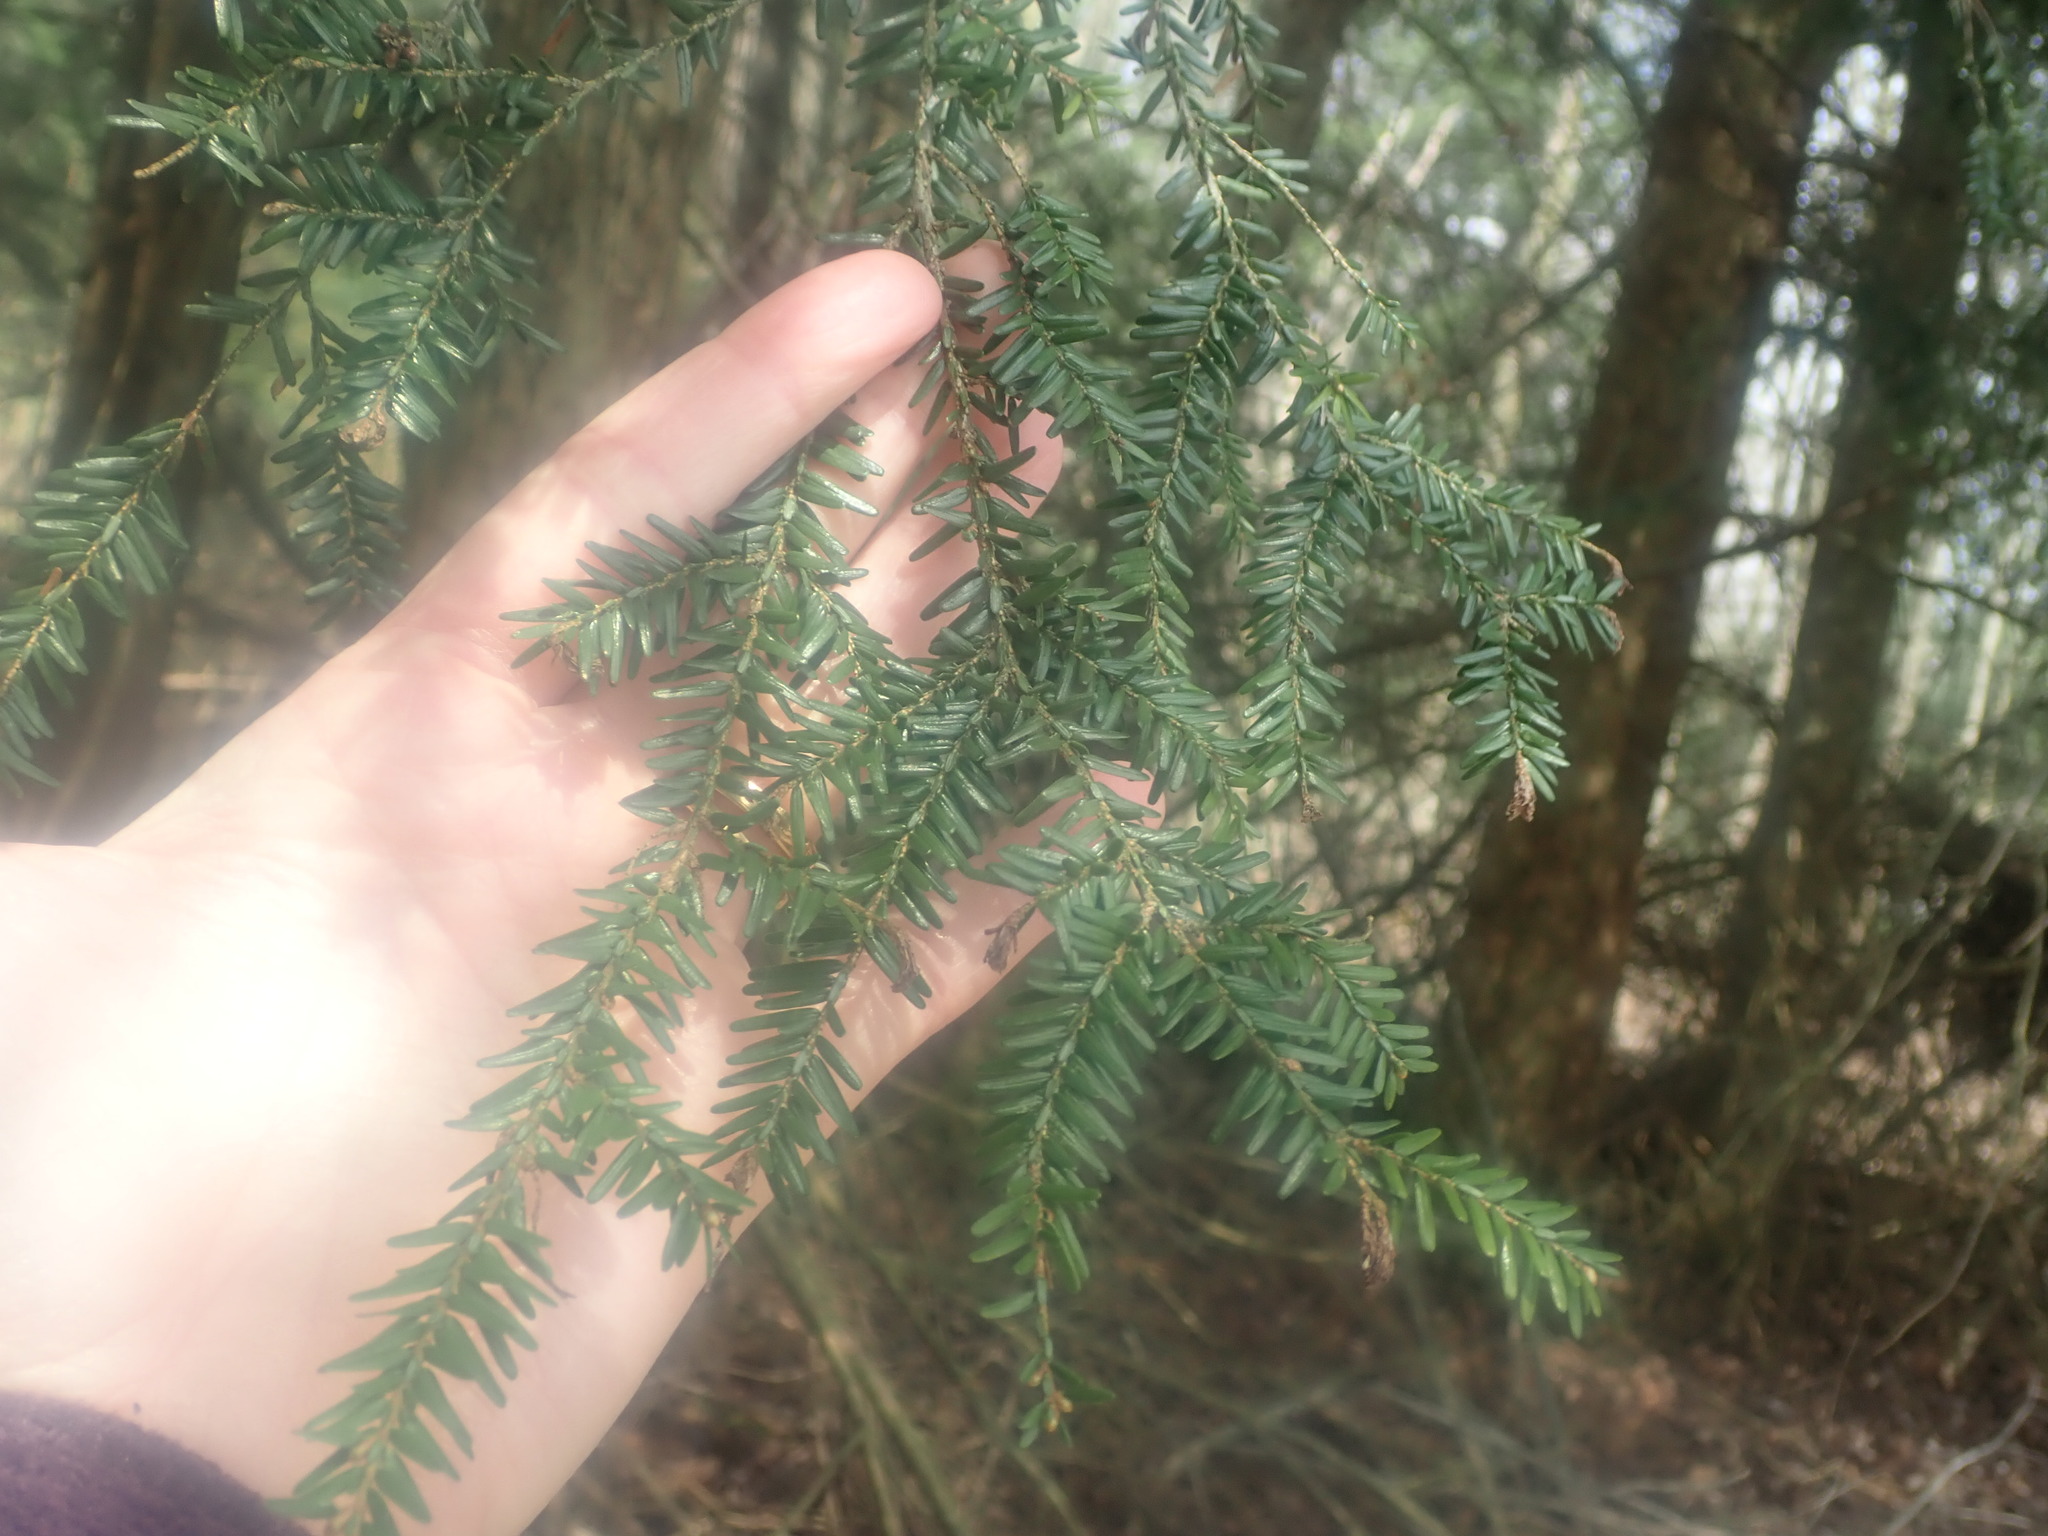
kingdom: Plantae
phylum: Tracheophyta
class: Pinopsida
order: Pinales
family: Pinaceae
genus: Tsuga
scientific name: Tsuga canadensis
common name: Eastern hemlock
